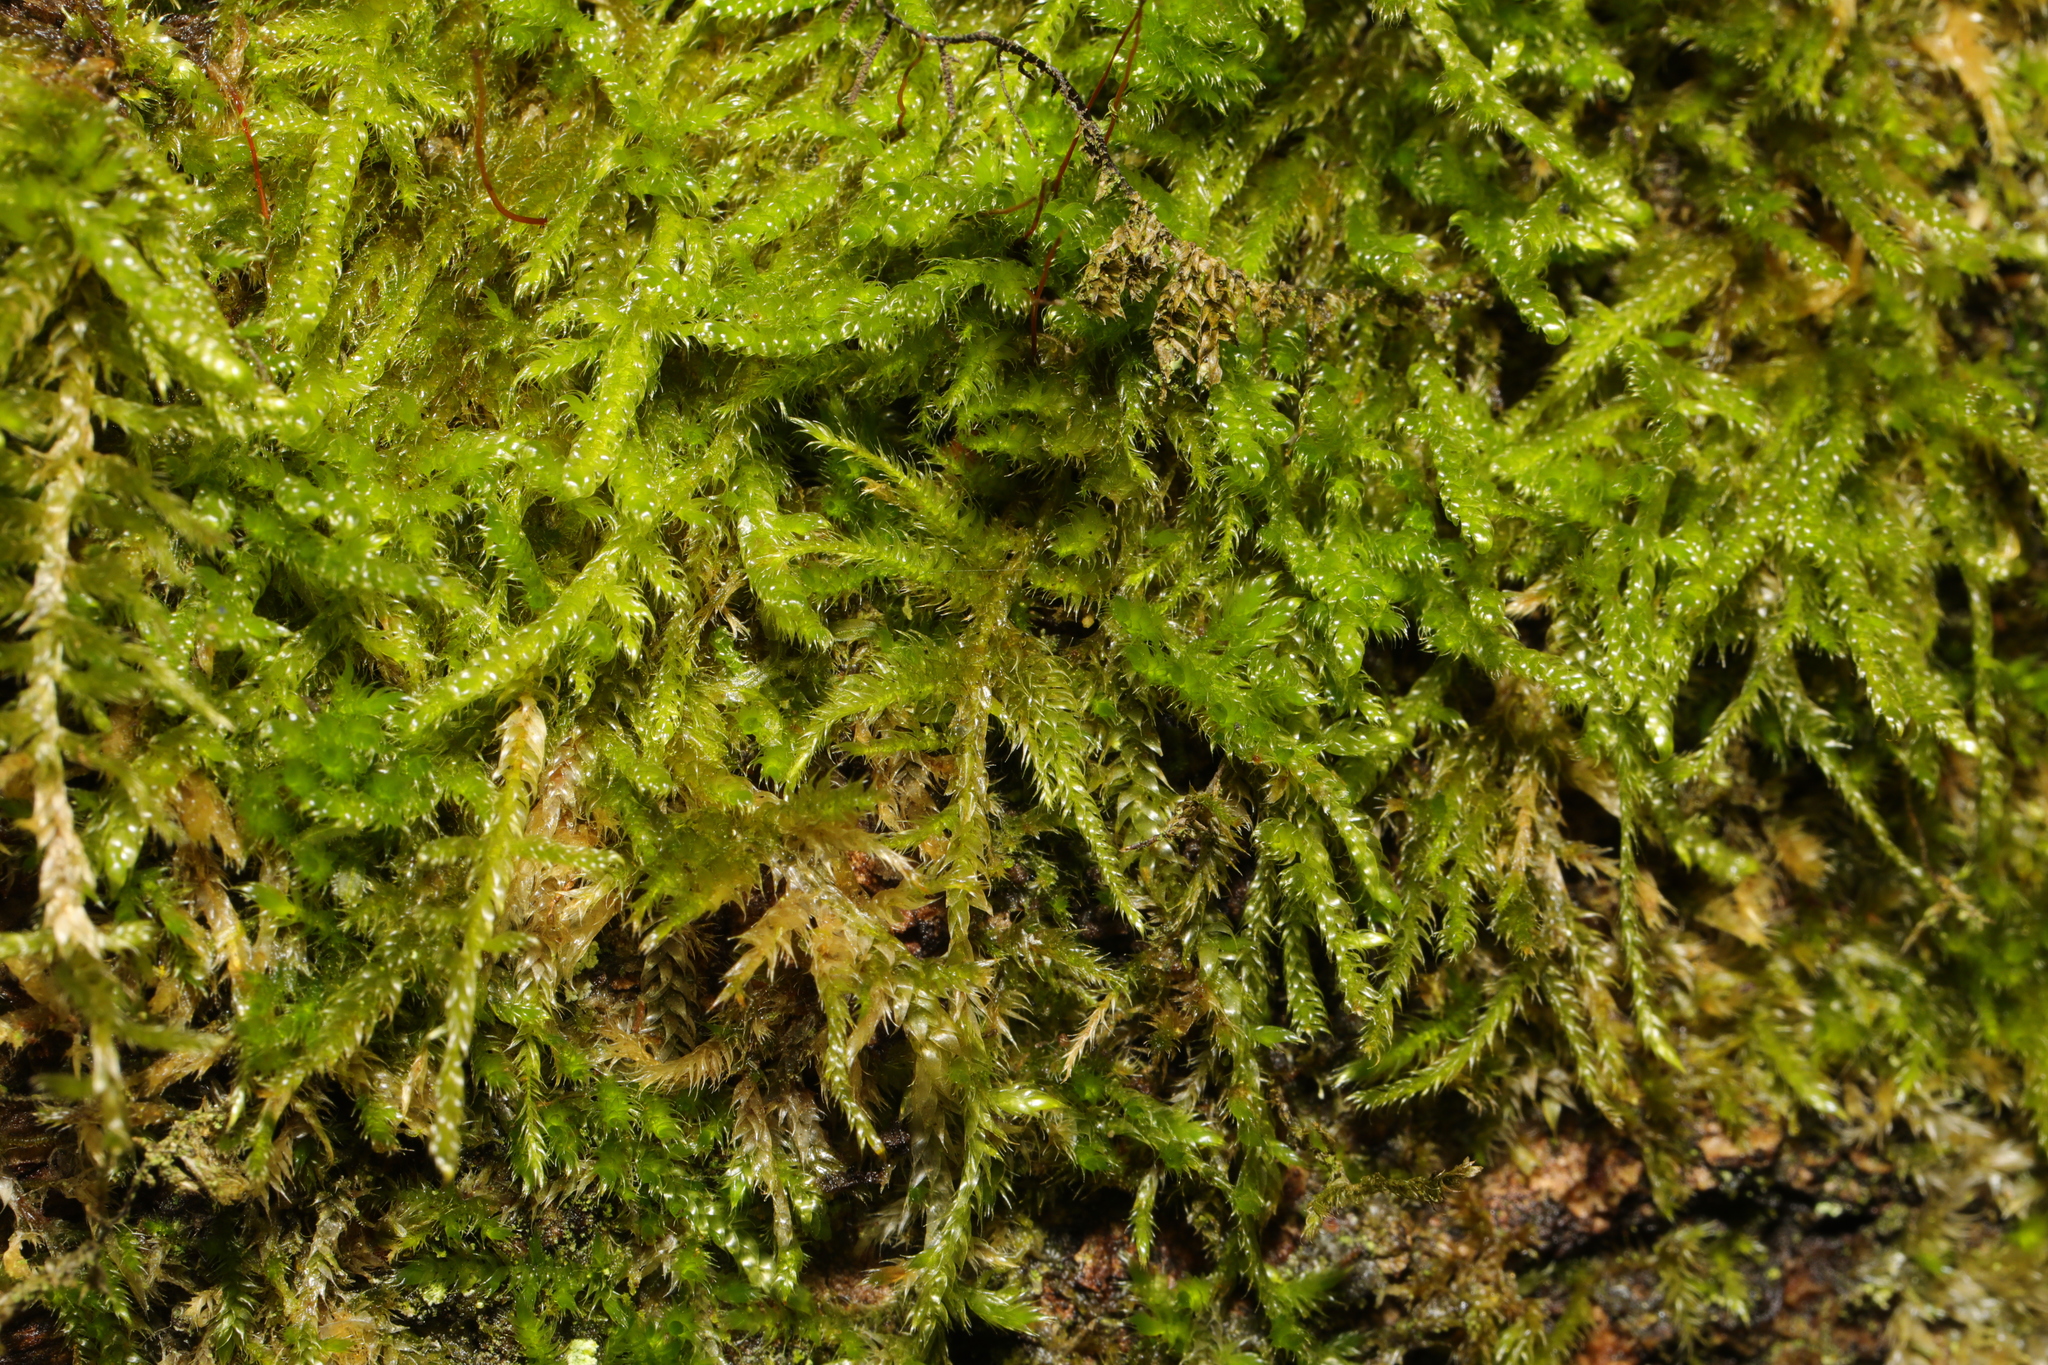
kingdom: Plantae
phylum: Bryophyta
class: Bryopsida
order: Hypnales
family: Hypnaceae
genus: Hypnum
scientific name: Hypnum cupressiforme
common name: Cypress-leaved plait-moss
